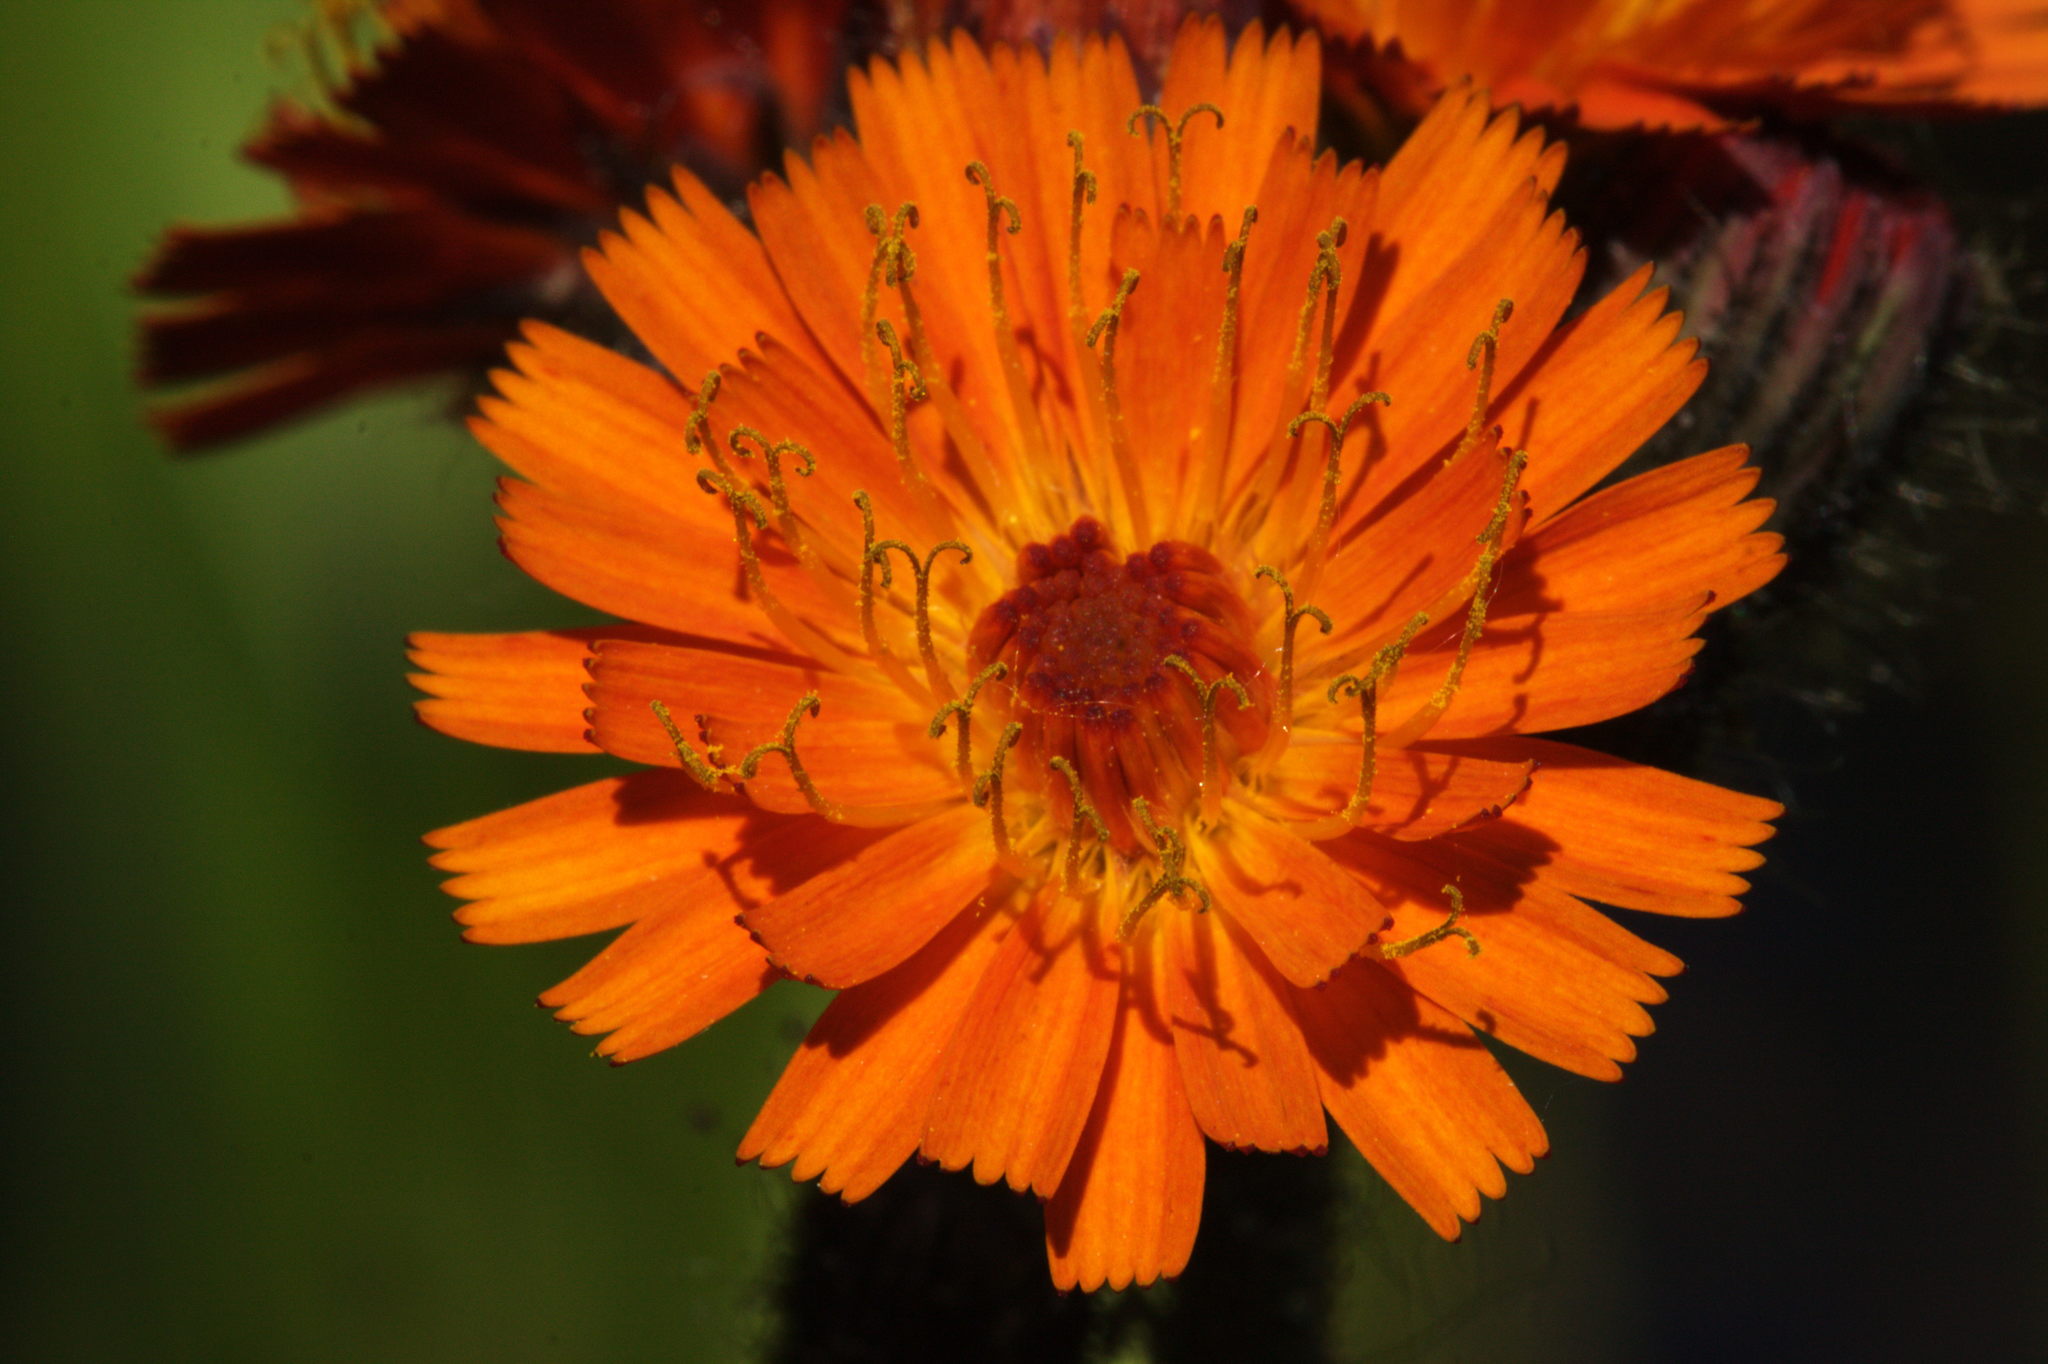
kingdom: Plantae
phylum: Tracheophyta
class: Magnoliopsida
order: Asterales
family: Asteraceae
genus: Pilosella
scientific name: Pilosella aurantiaca
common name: Fox-and-cubs
